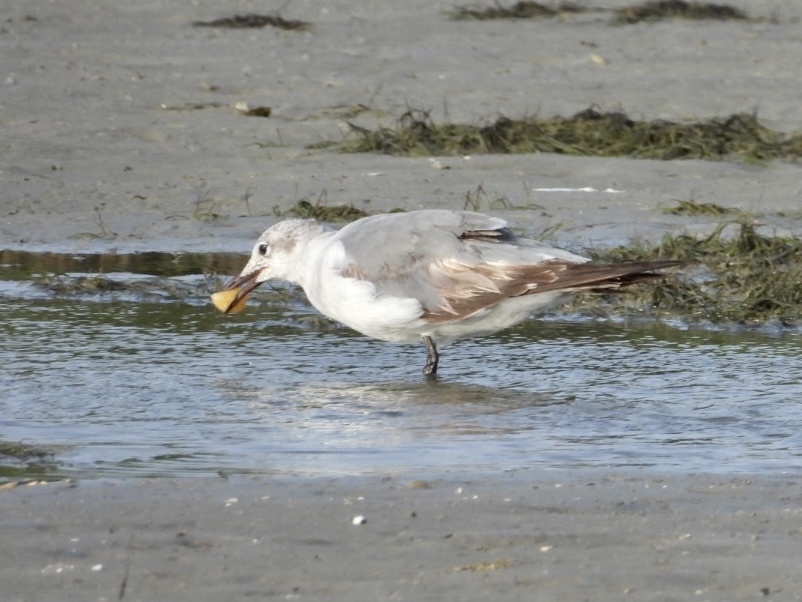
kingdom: Animalia
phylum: Chordata
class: Aves
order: Charadriiformes
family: Laridae
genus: Leucophaeus
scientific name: Leucophaeus atricilla
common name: Laughing gull
